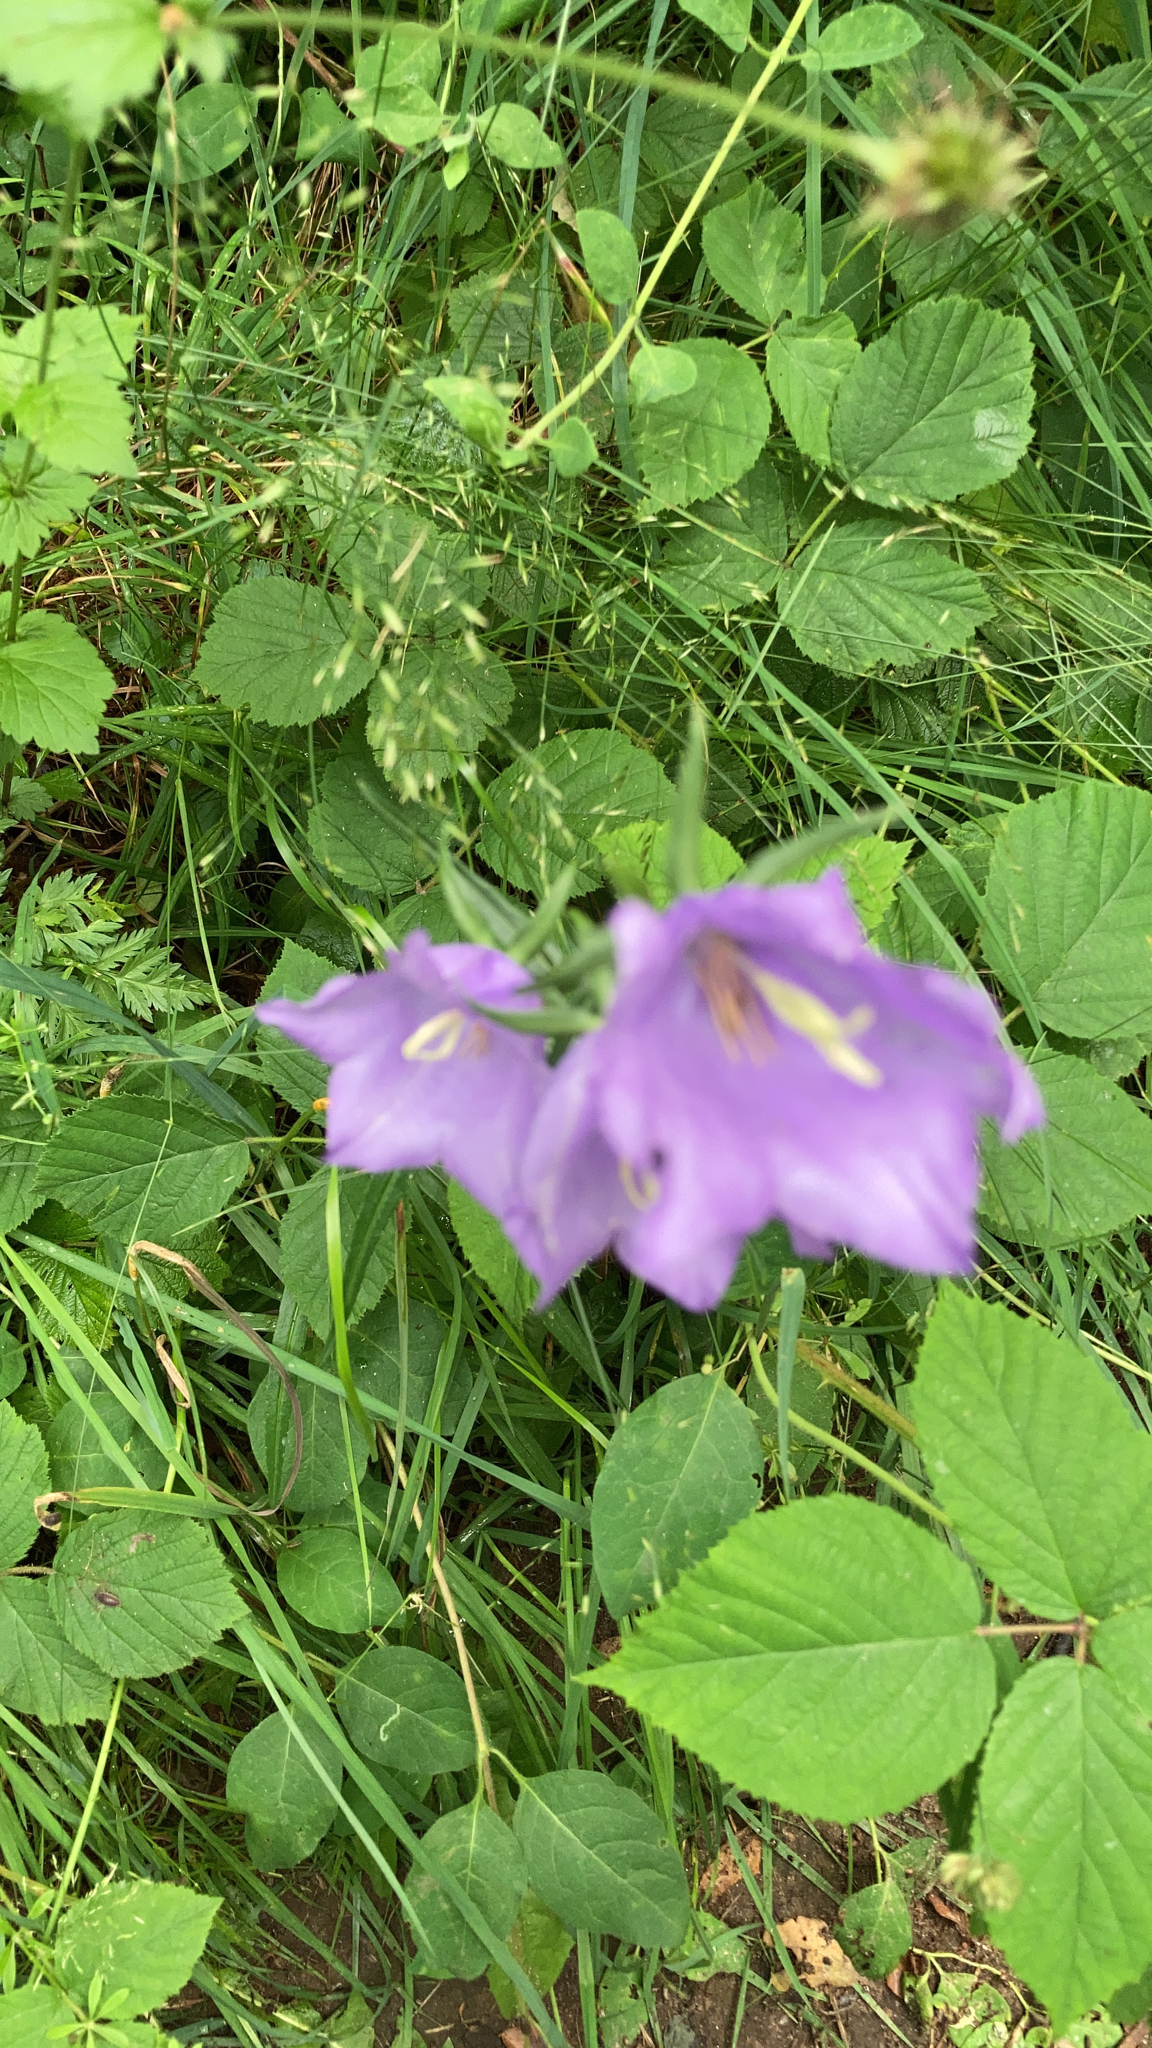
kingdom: Plantae
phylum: Tracheophyta
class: Magnoliopsida
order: Asterales
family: Campanulaceae
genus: Campanula
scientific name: Campanula persicifolia
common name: Peach-leaved bellflower
